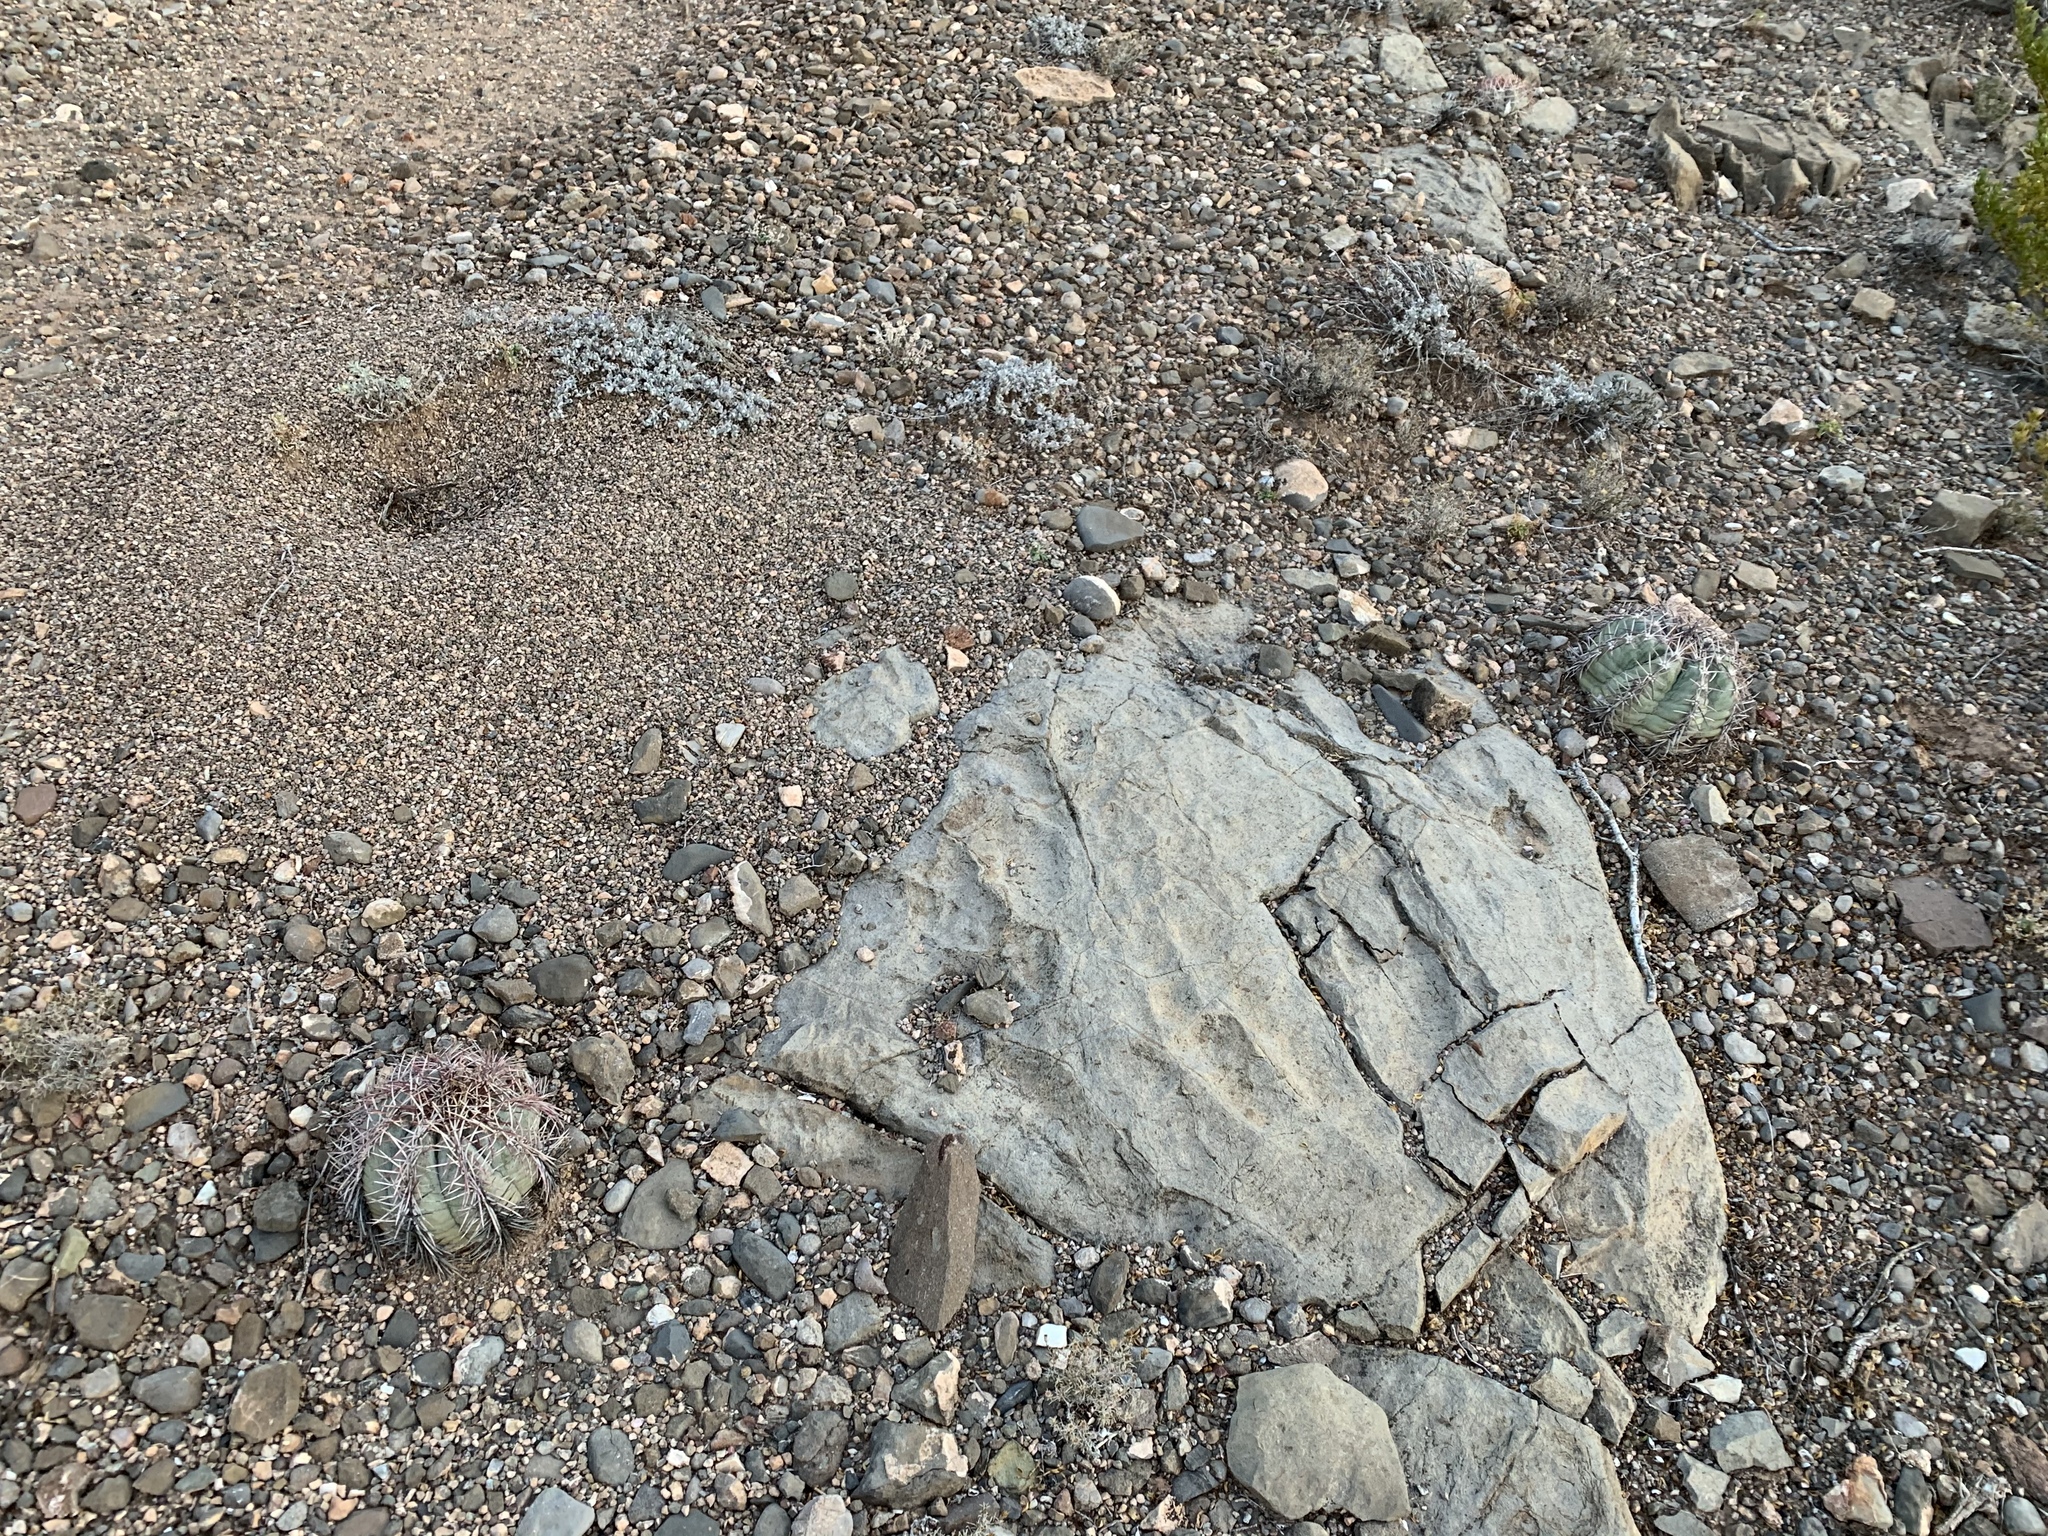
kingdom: Plantae
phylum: Tracheophyta
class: Magnoliopsida
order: Caryophyllales
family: Cactaceae
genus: Echinocactus
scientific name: Echinocactus horizonthalonius
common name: Devilshead
